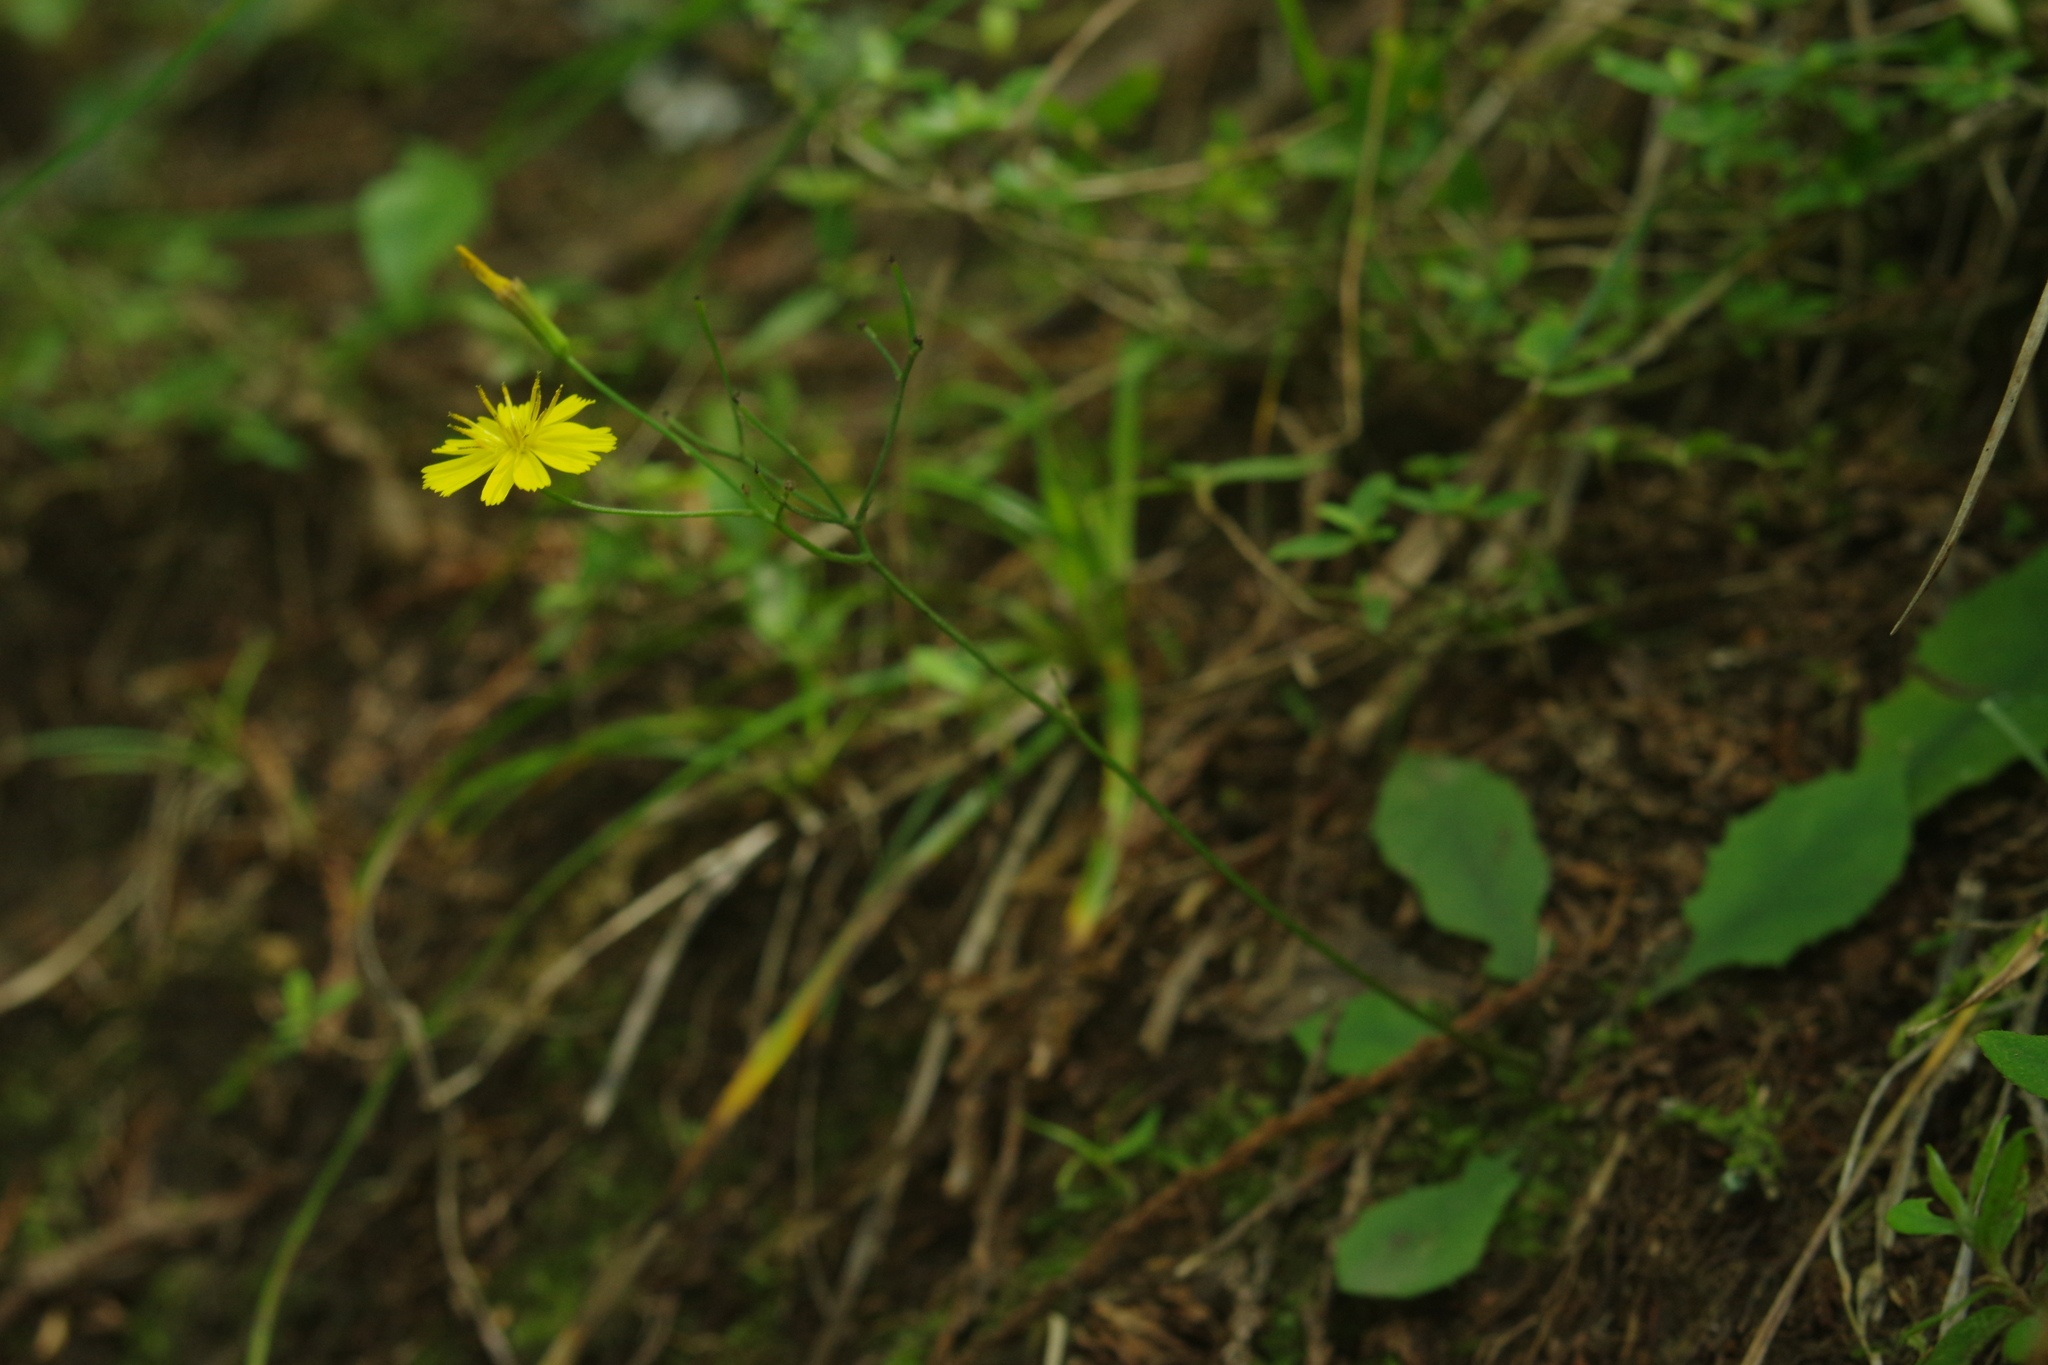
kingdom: Plantae
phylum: Tracheophyta
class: Magnoliopsida
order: Asterales
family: Asteraceae
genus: Ixeridium
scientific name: Ixeridium laevigatum
